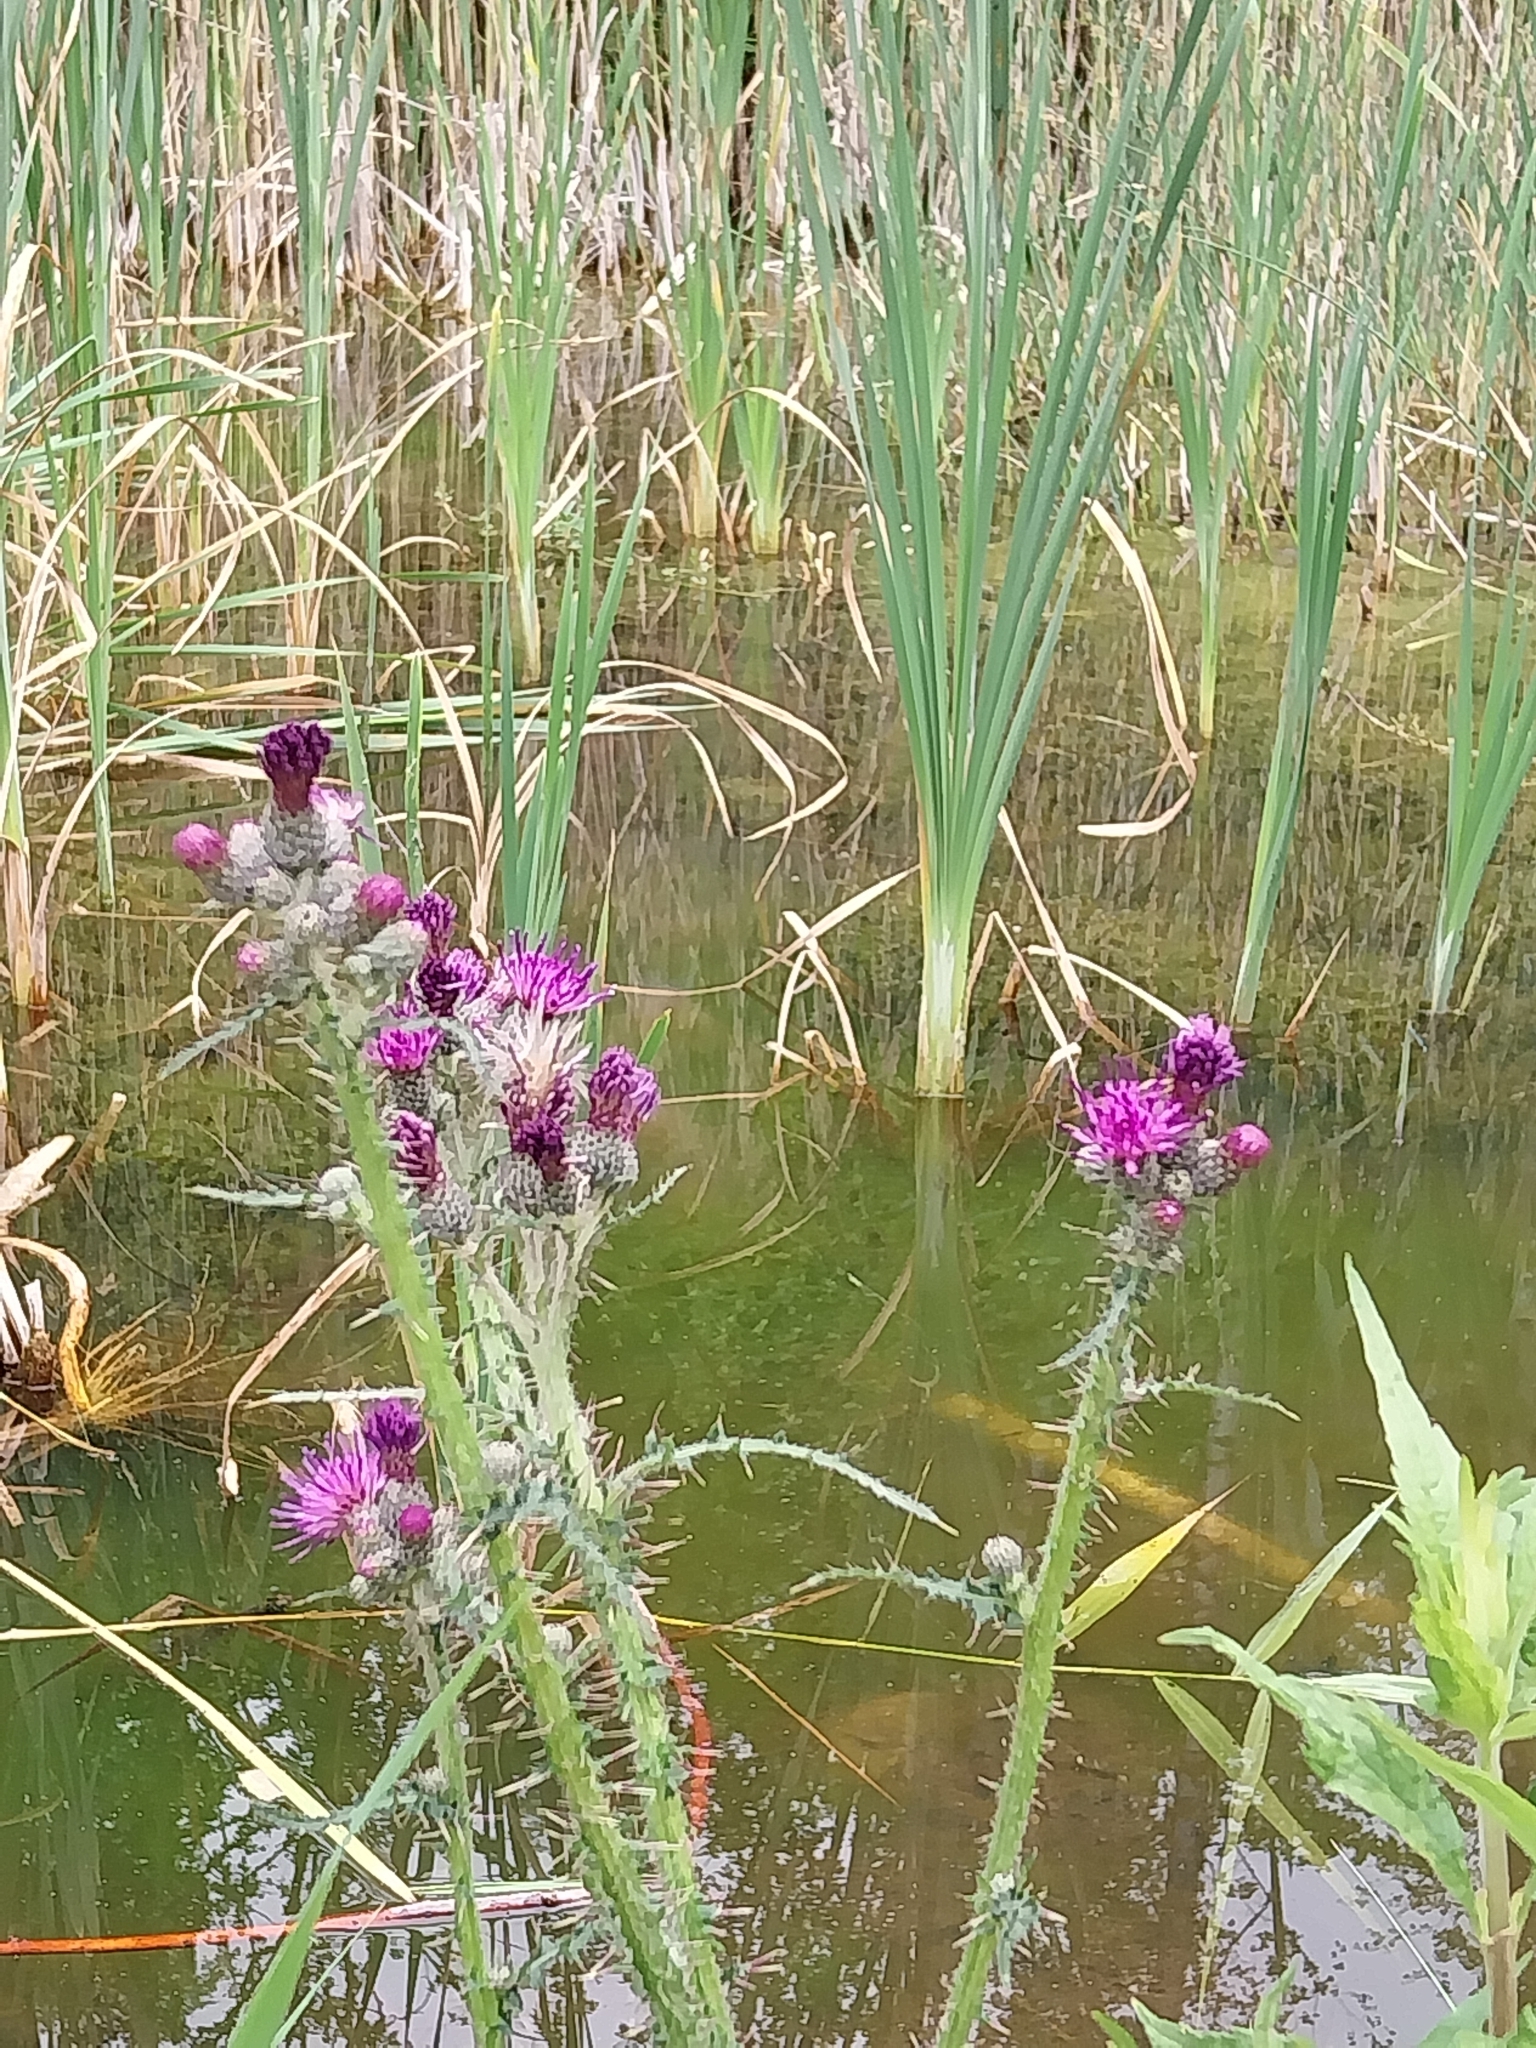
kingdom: Plantae
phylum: Tracheophyta
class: Magnoliopsida
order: Asterales
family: Asteraceae
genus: Cirsium
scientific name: Cirsium palustre
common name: Marsh thistle
